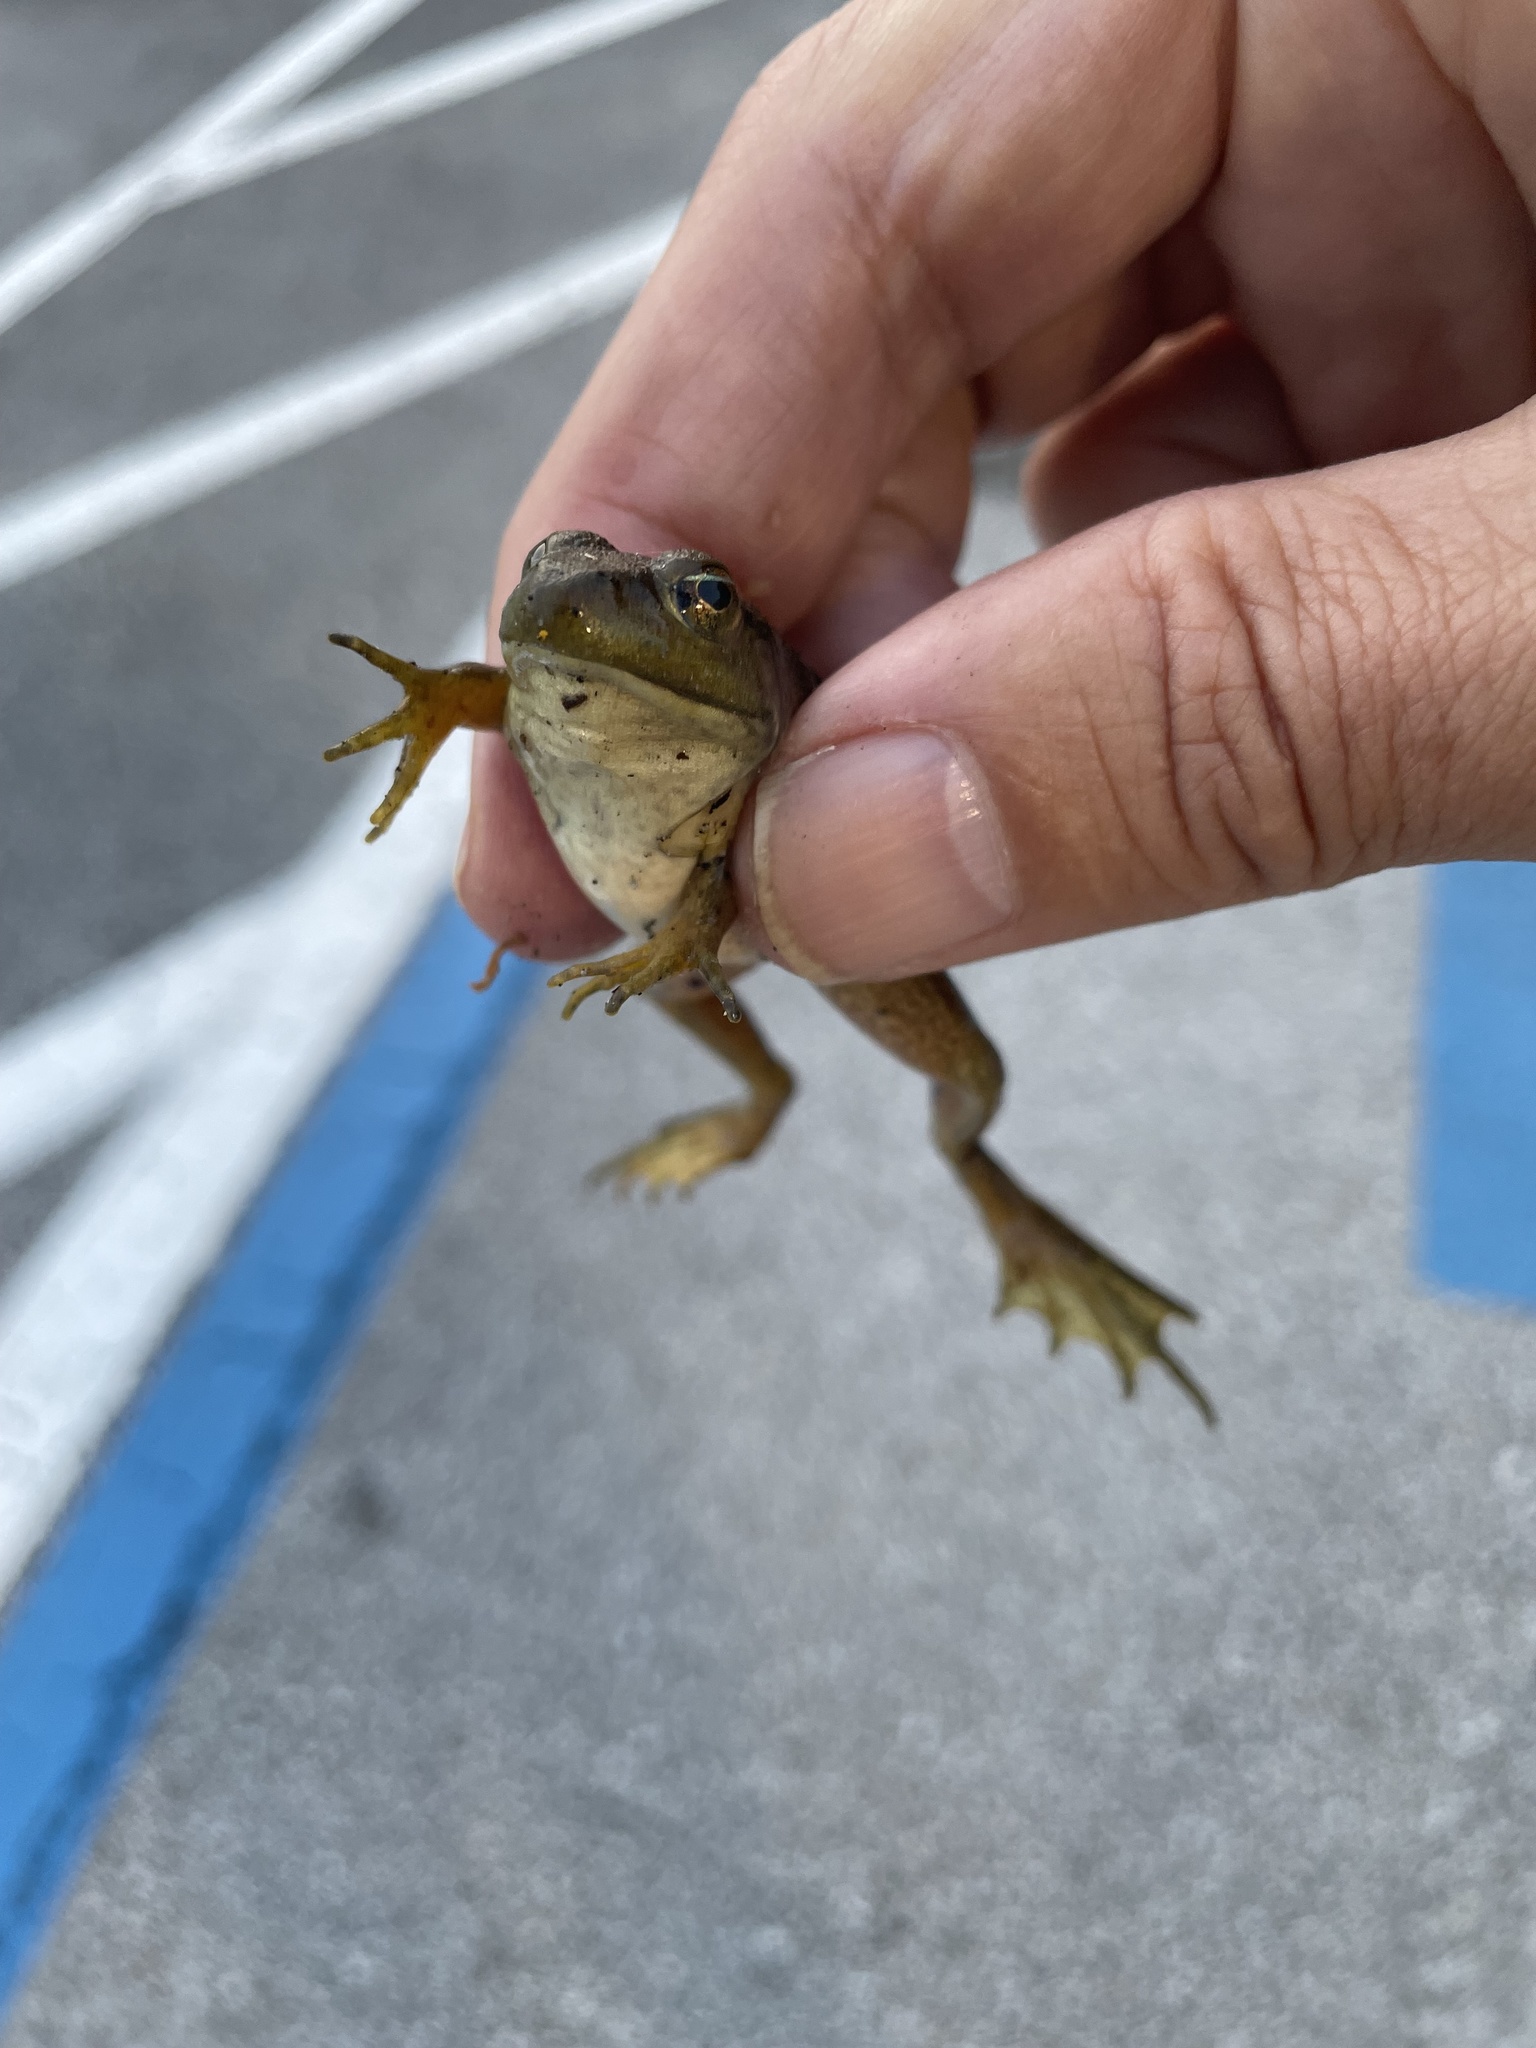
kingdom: Animalia
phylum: Chordata
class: Amphibia
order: Anura
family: Ranidae
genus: Lithobates
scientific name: Lithobates catesbeianus
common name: American bullfrog
